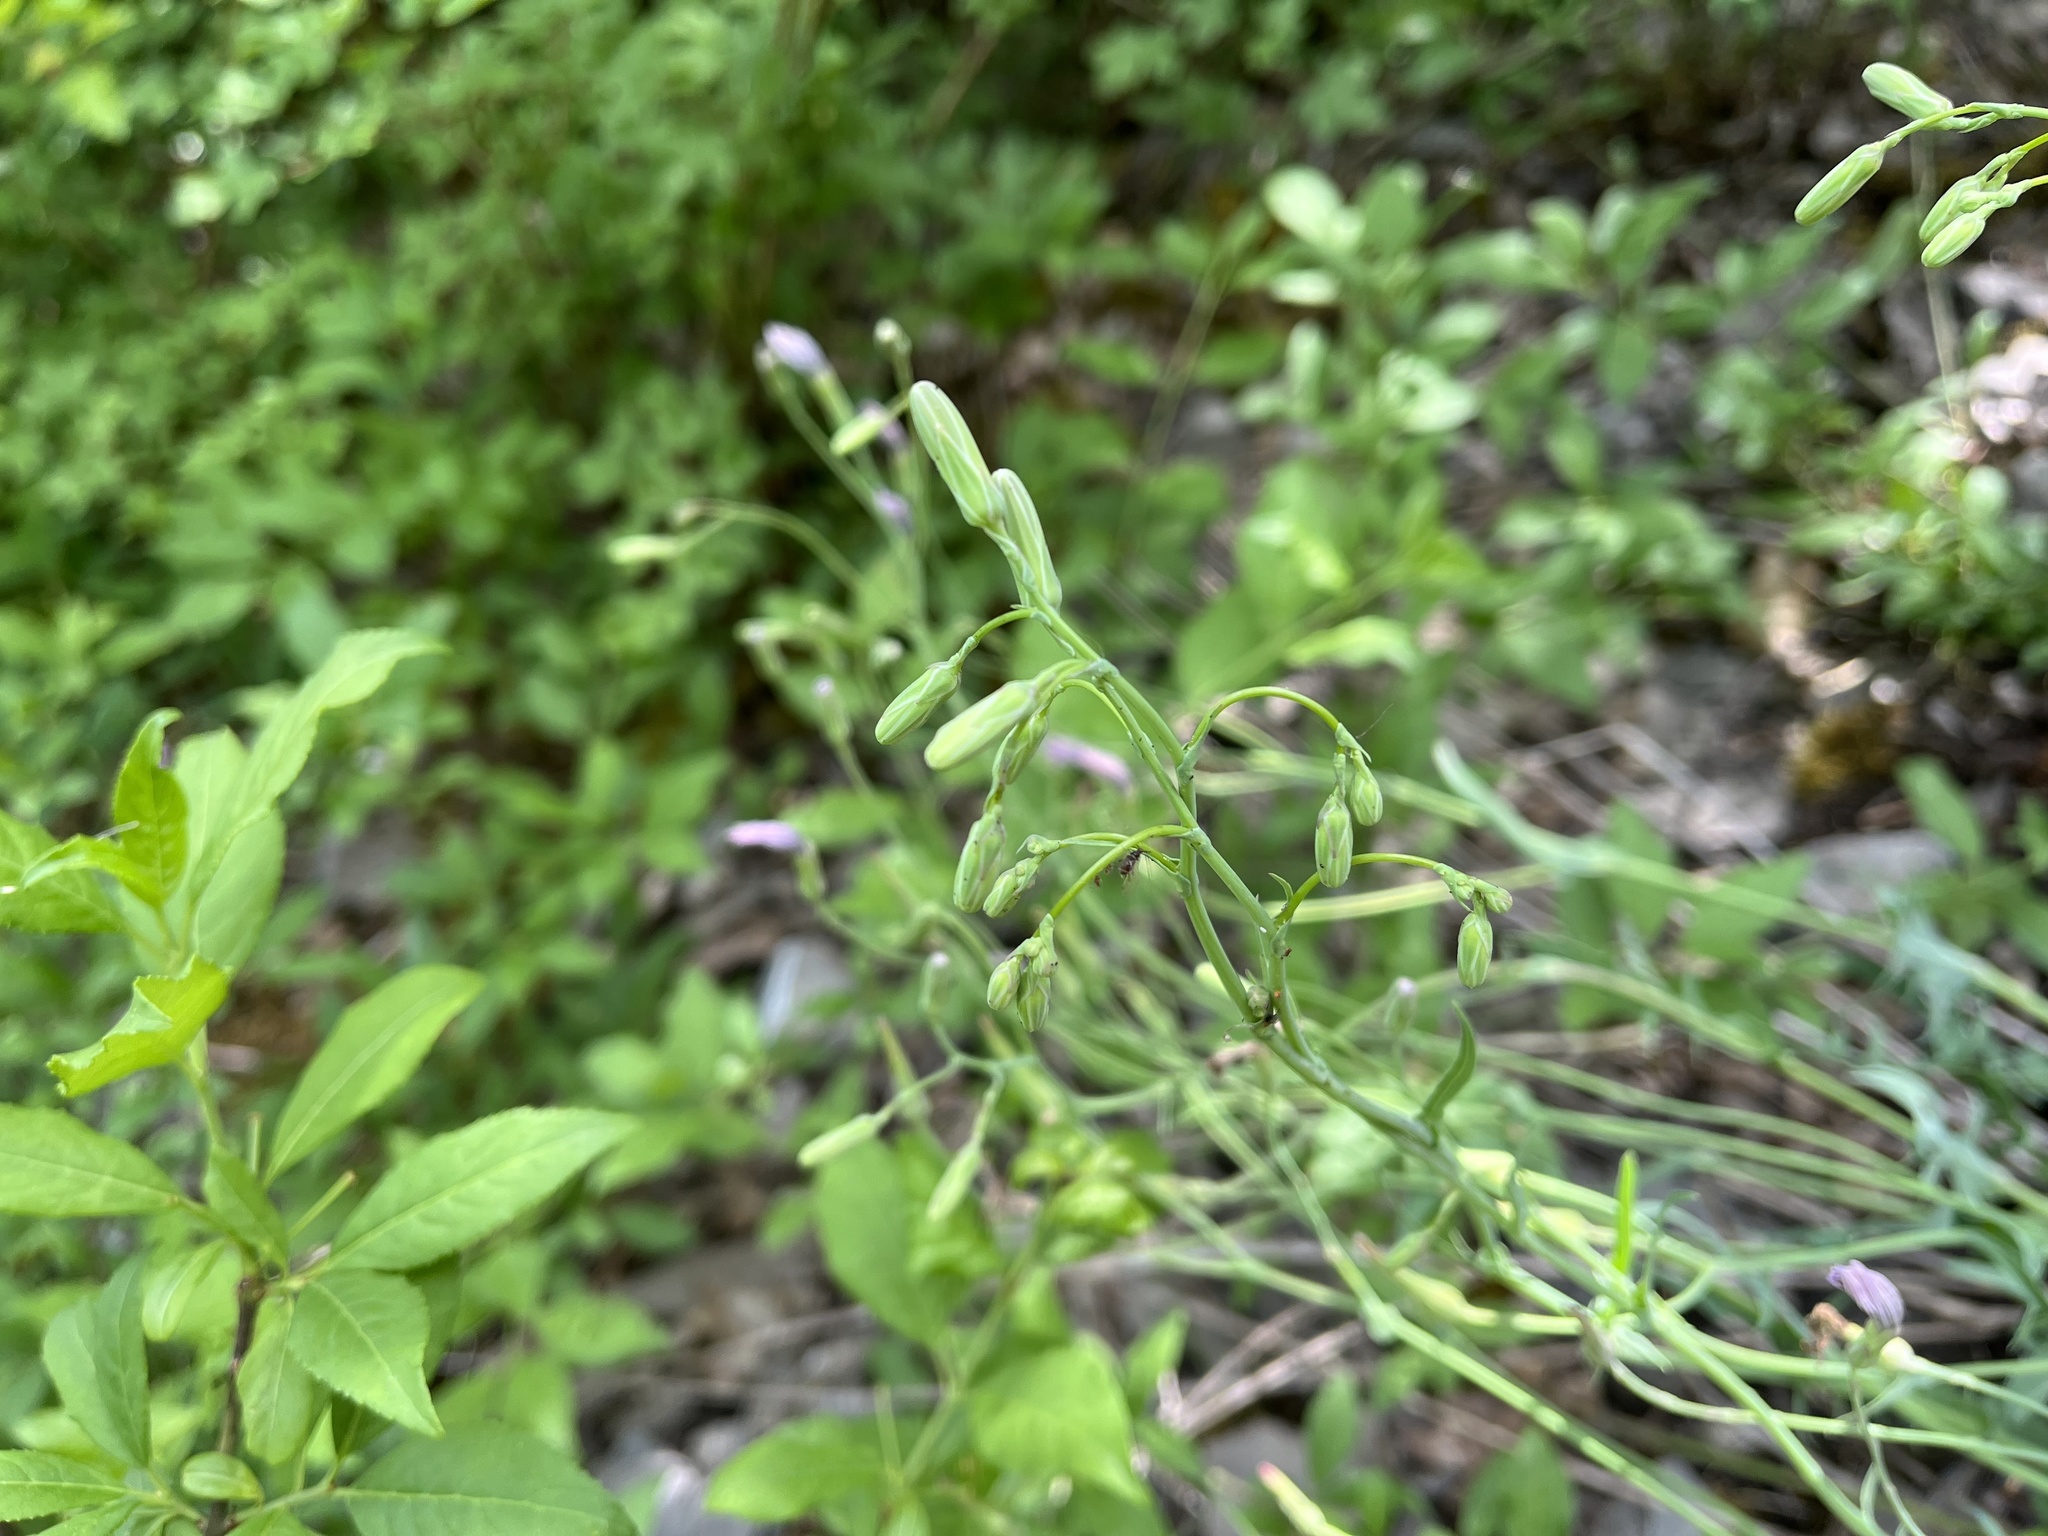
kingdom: Plantae
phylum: Tracheophyta
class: Magnoliopsida
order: Asterales
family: Asteraceae
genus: Lactuca
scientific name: Lactuca perennis
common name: Mountain lettuce
